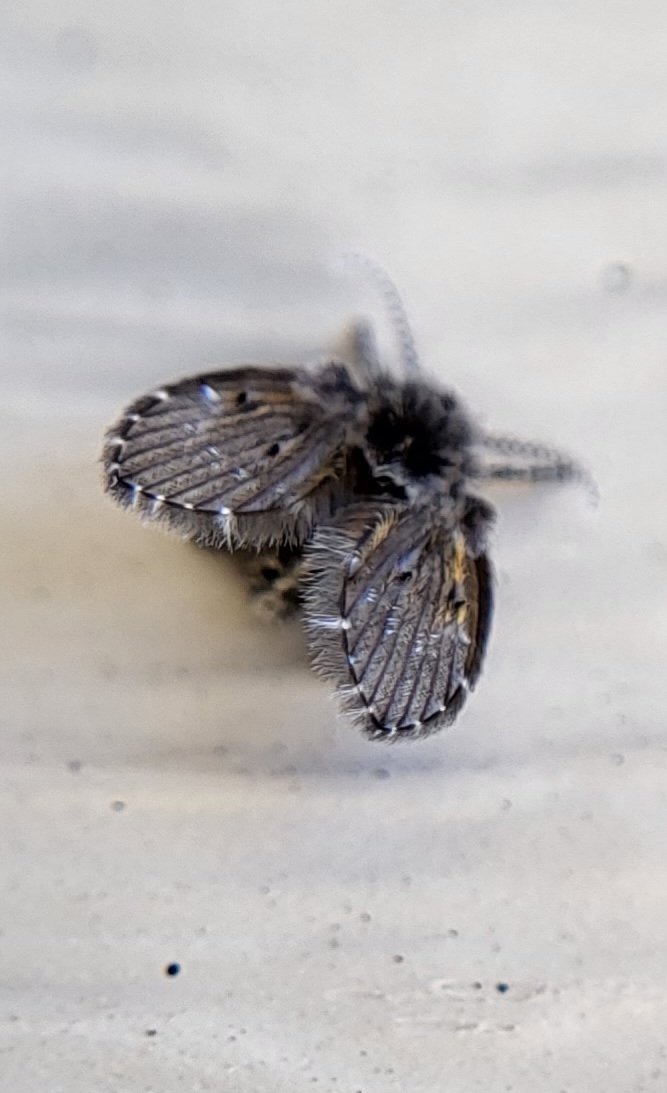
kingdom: Animalia
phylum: Arthropoda
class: Insecta
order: Diptera
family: Psychodidae
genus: Clogmia
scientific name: Clogmia albipunctatus
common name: White-spotted moth fly
